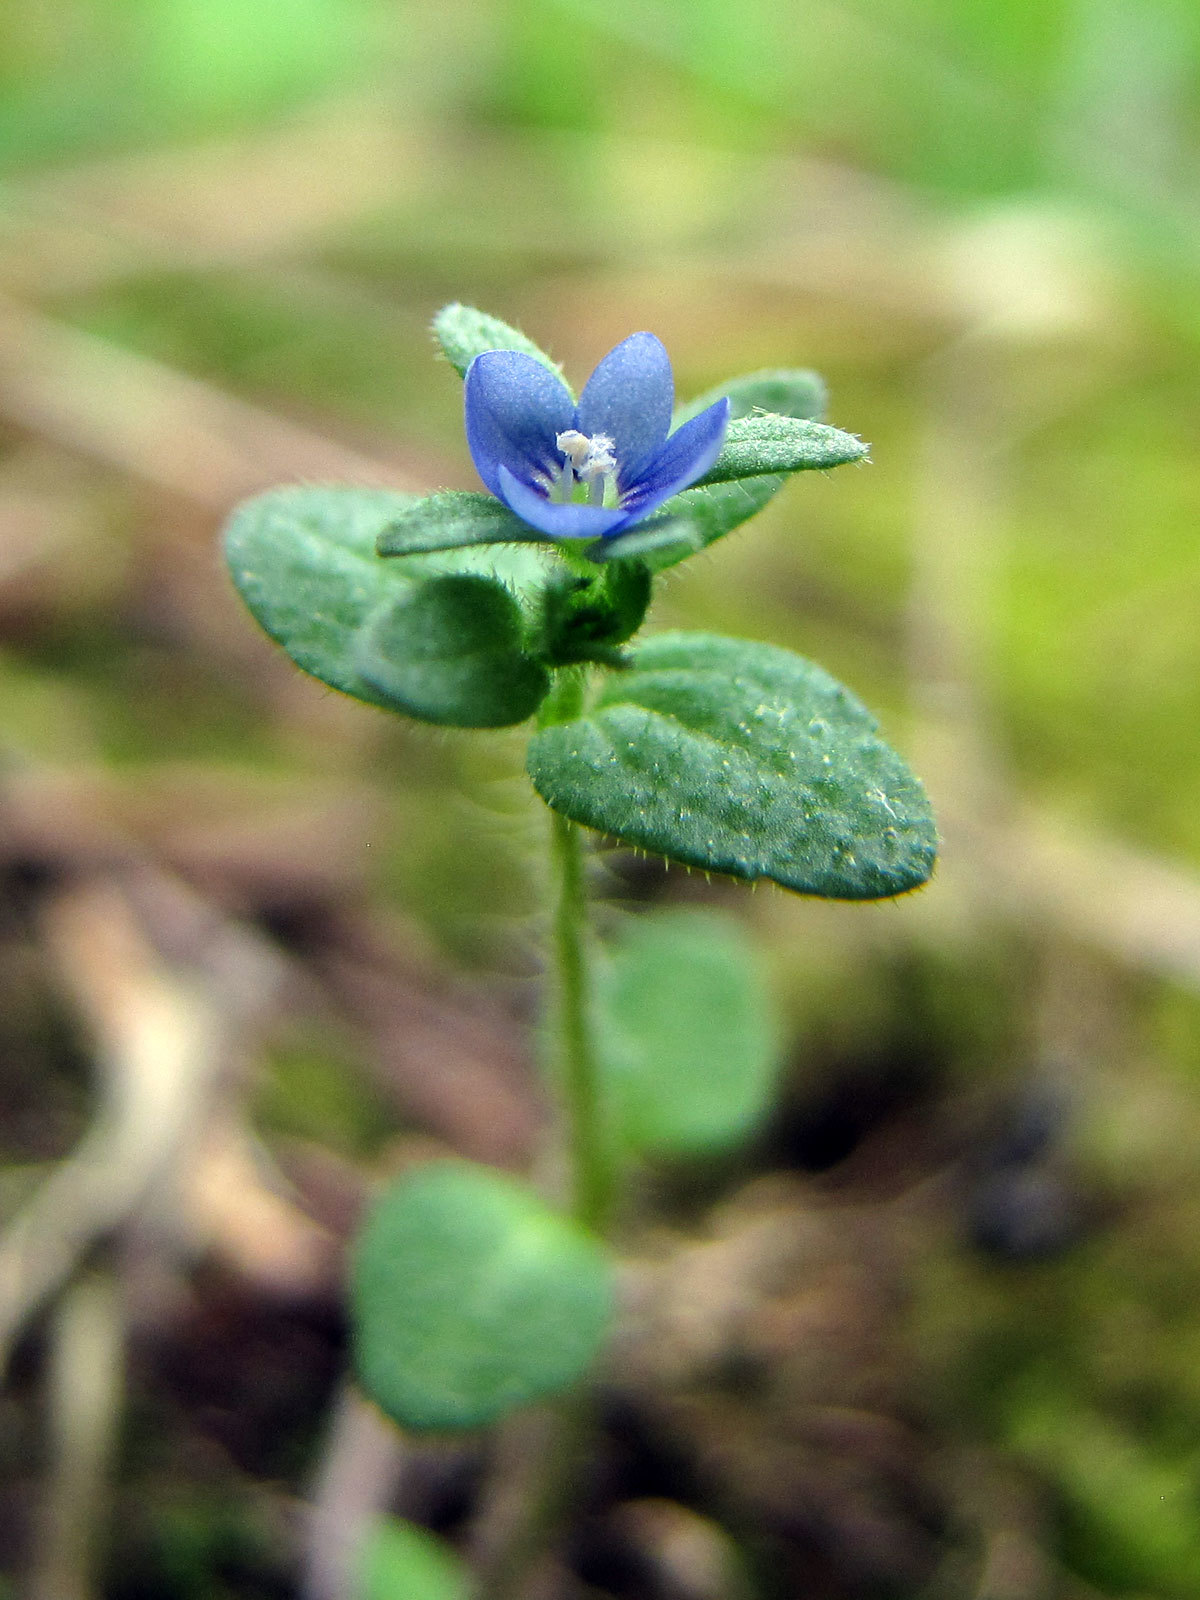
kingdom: Plantae
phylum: Tracheophyta
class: Magnoliopsida
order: Lamiales
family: Plantaginaceae
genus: Veronica
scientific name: Veronica arvensis
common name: Corn speedwell
